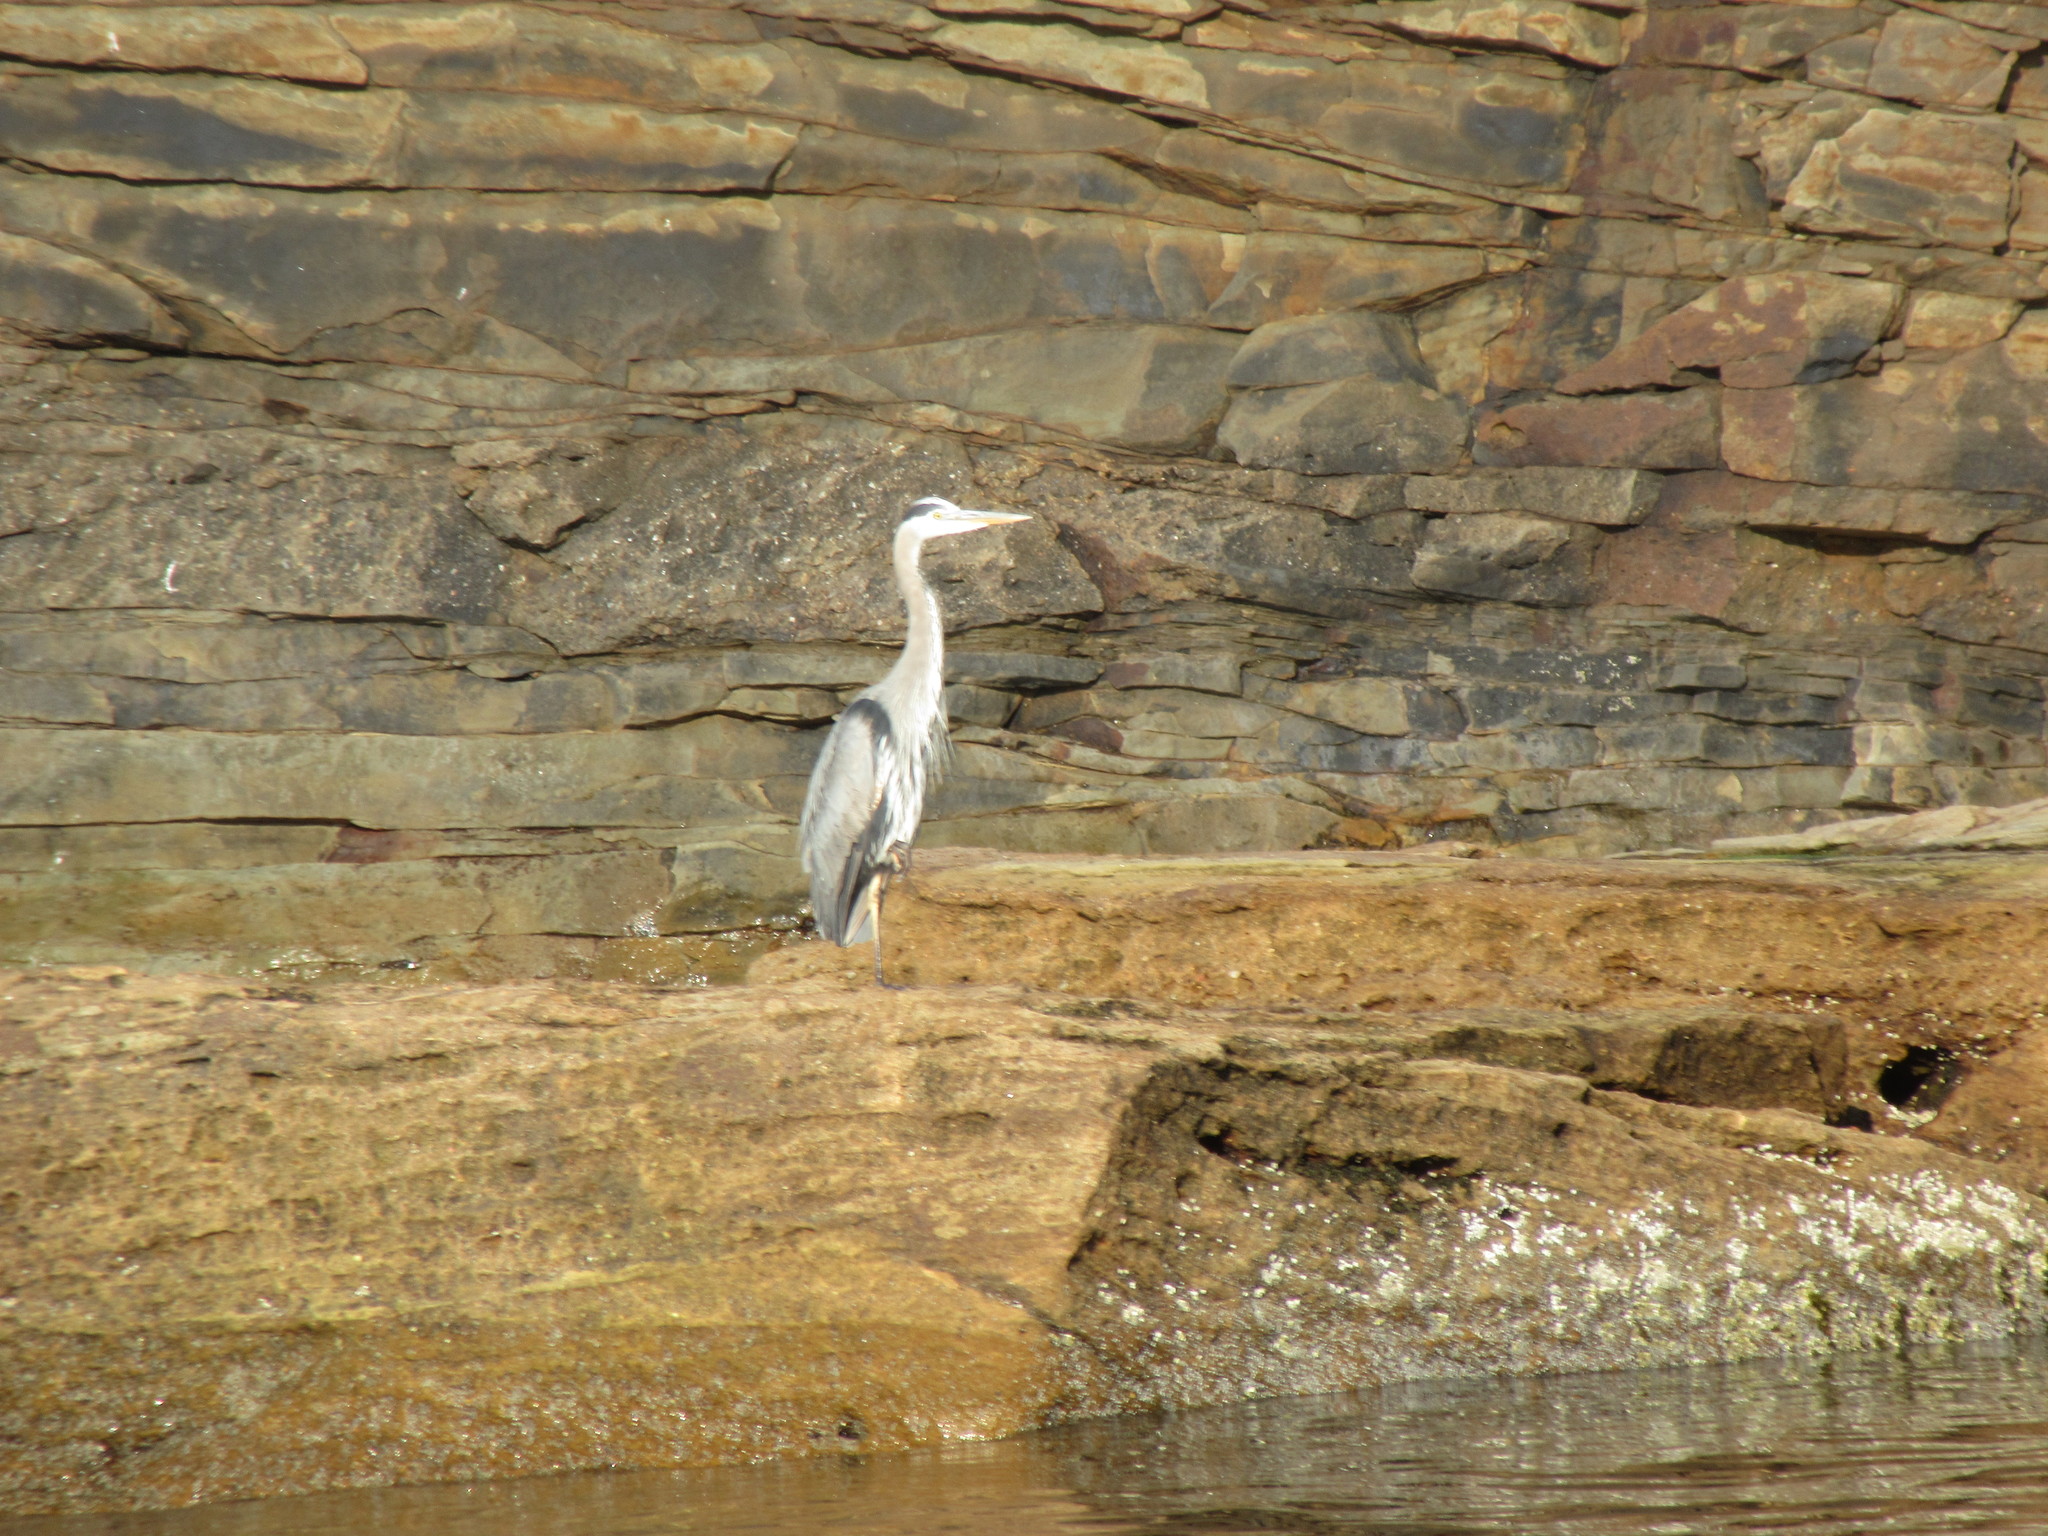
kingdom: Animalia
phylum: Chordata
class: Aves
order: Pelecaniformes
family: Ardeidae
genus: Ardea
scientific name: Ardea herodias
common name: Great blue heron
